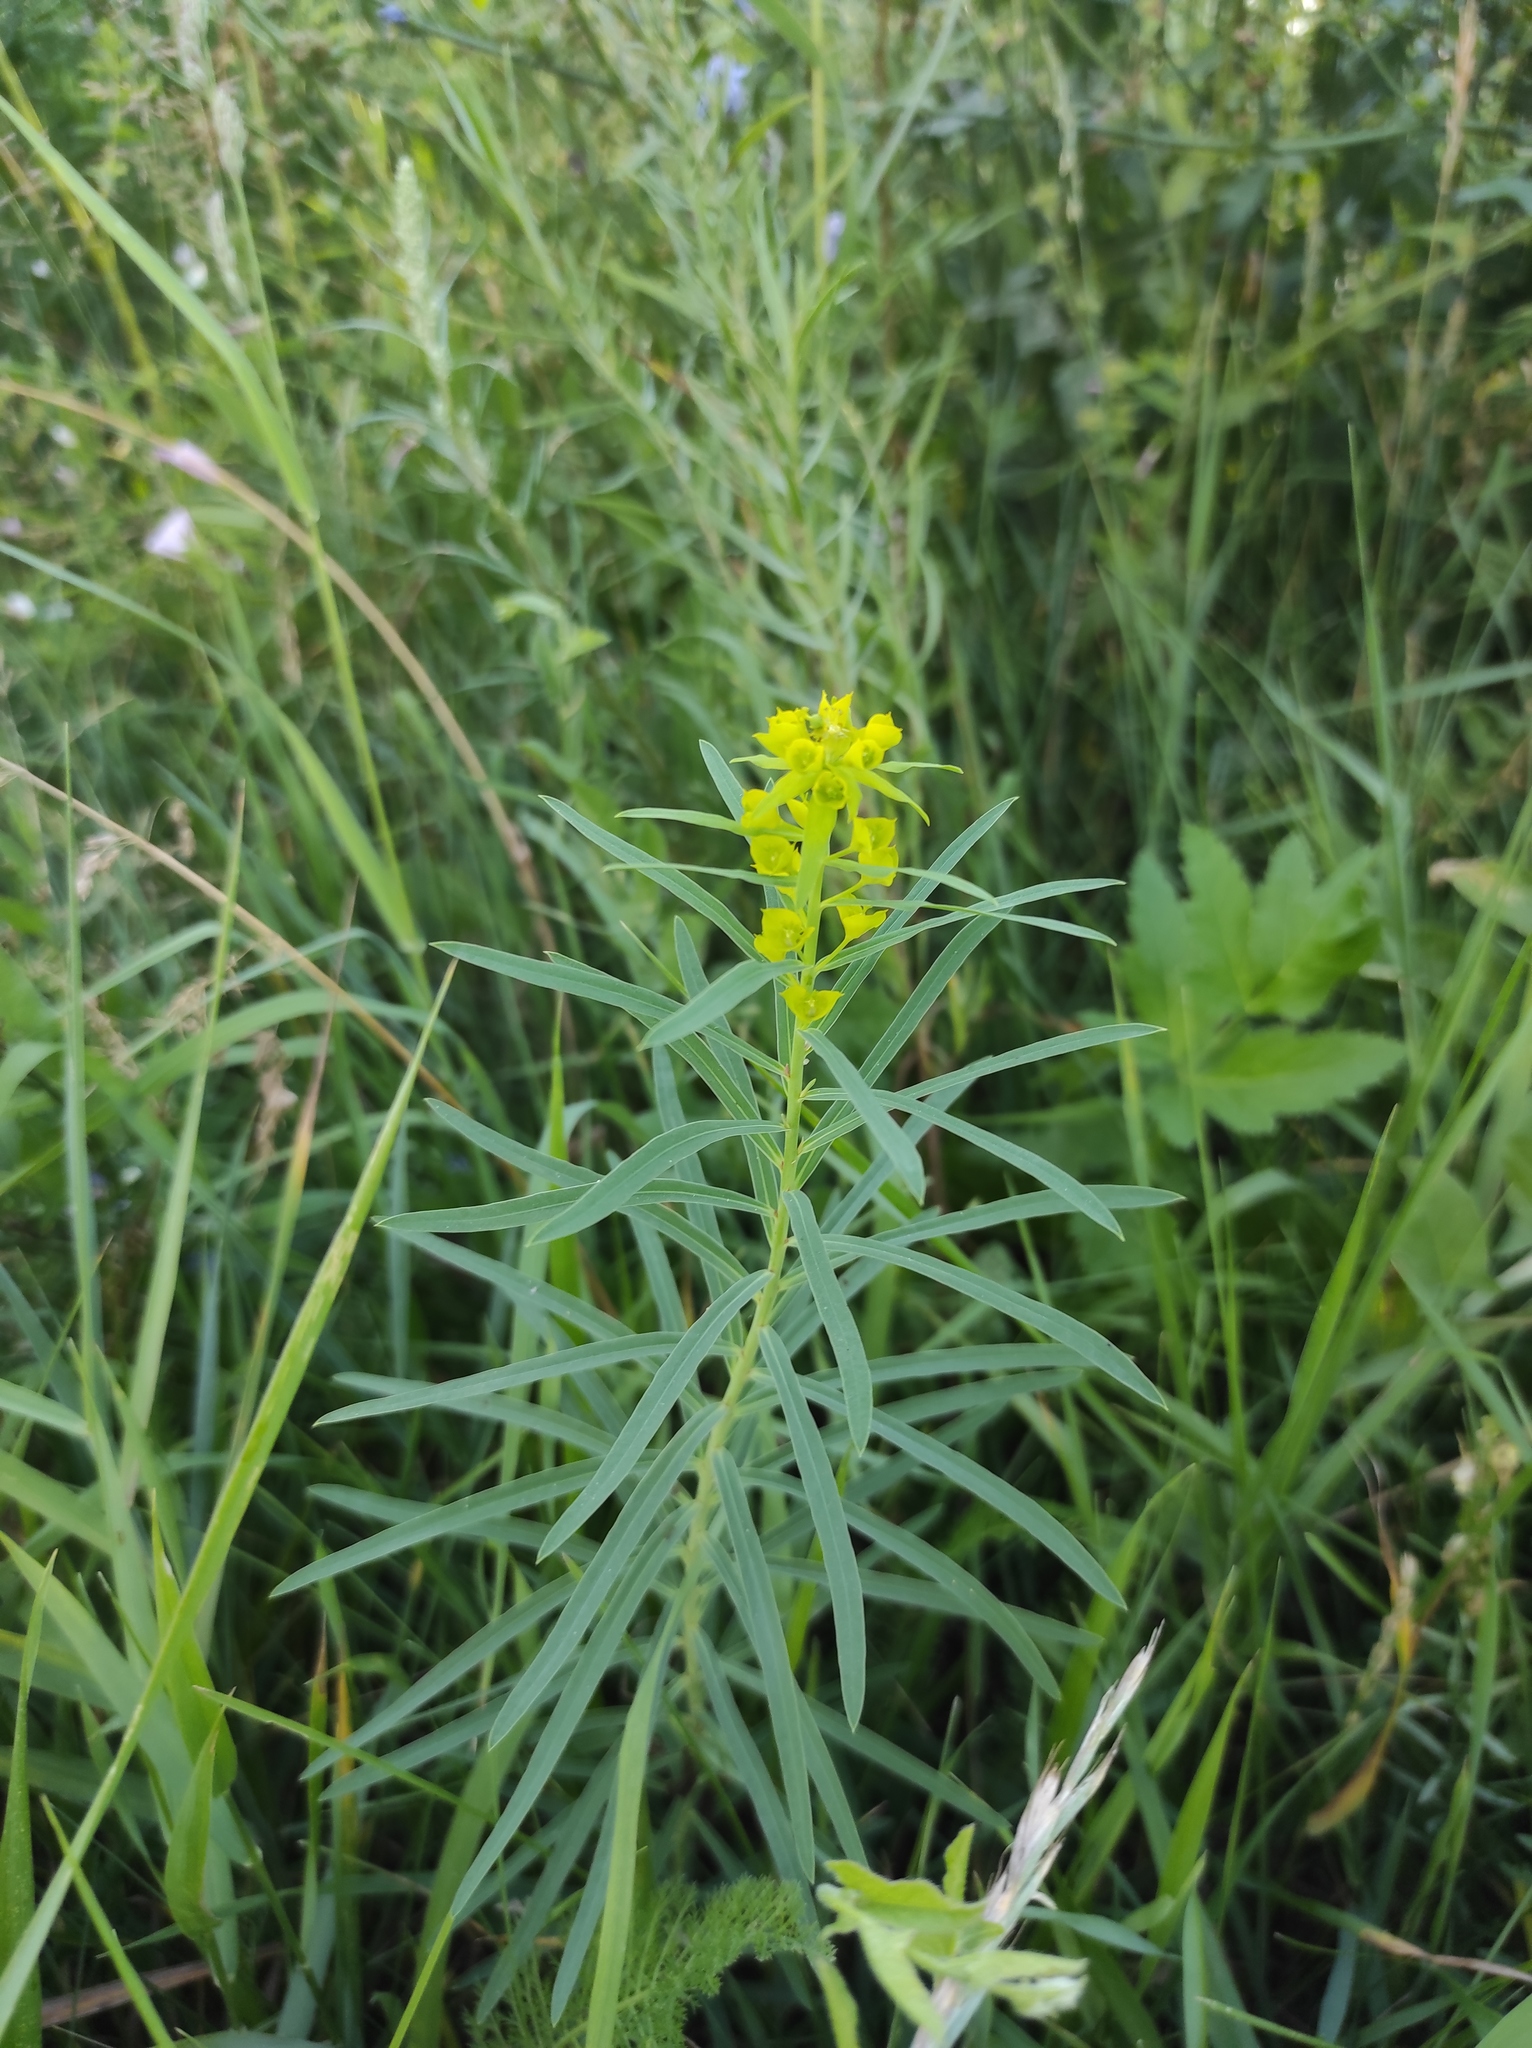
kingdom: Plantae
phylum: Tracheophyta
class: Magnoliopsida
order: Malpighiales
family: Euphorbiaceae
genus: Euphorbia
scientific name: Euphorbia virgata
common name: Leafy spurge
